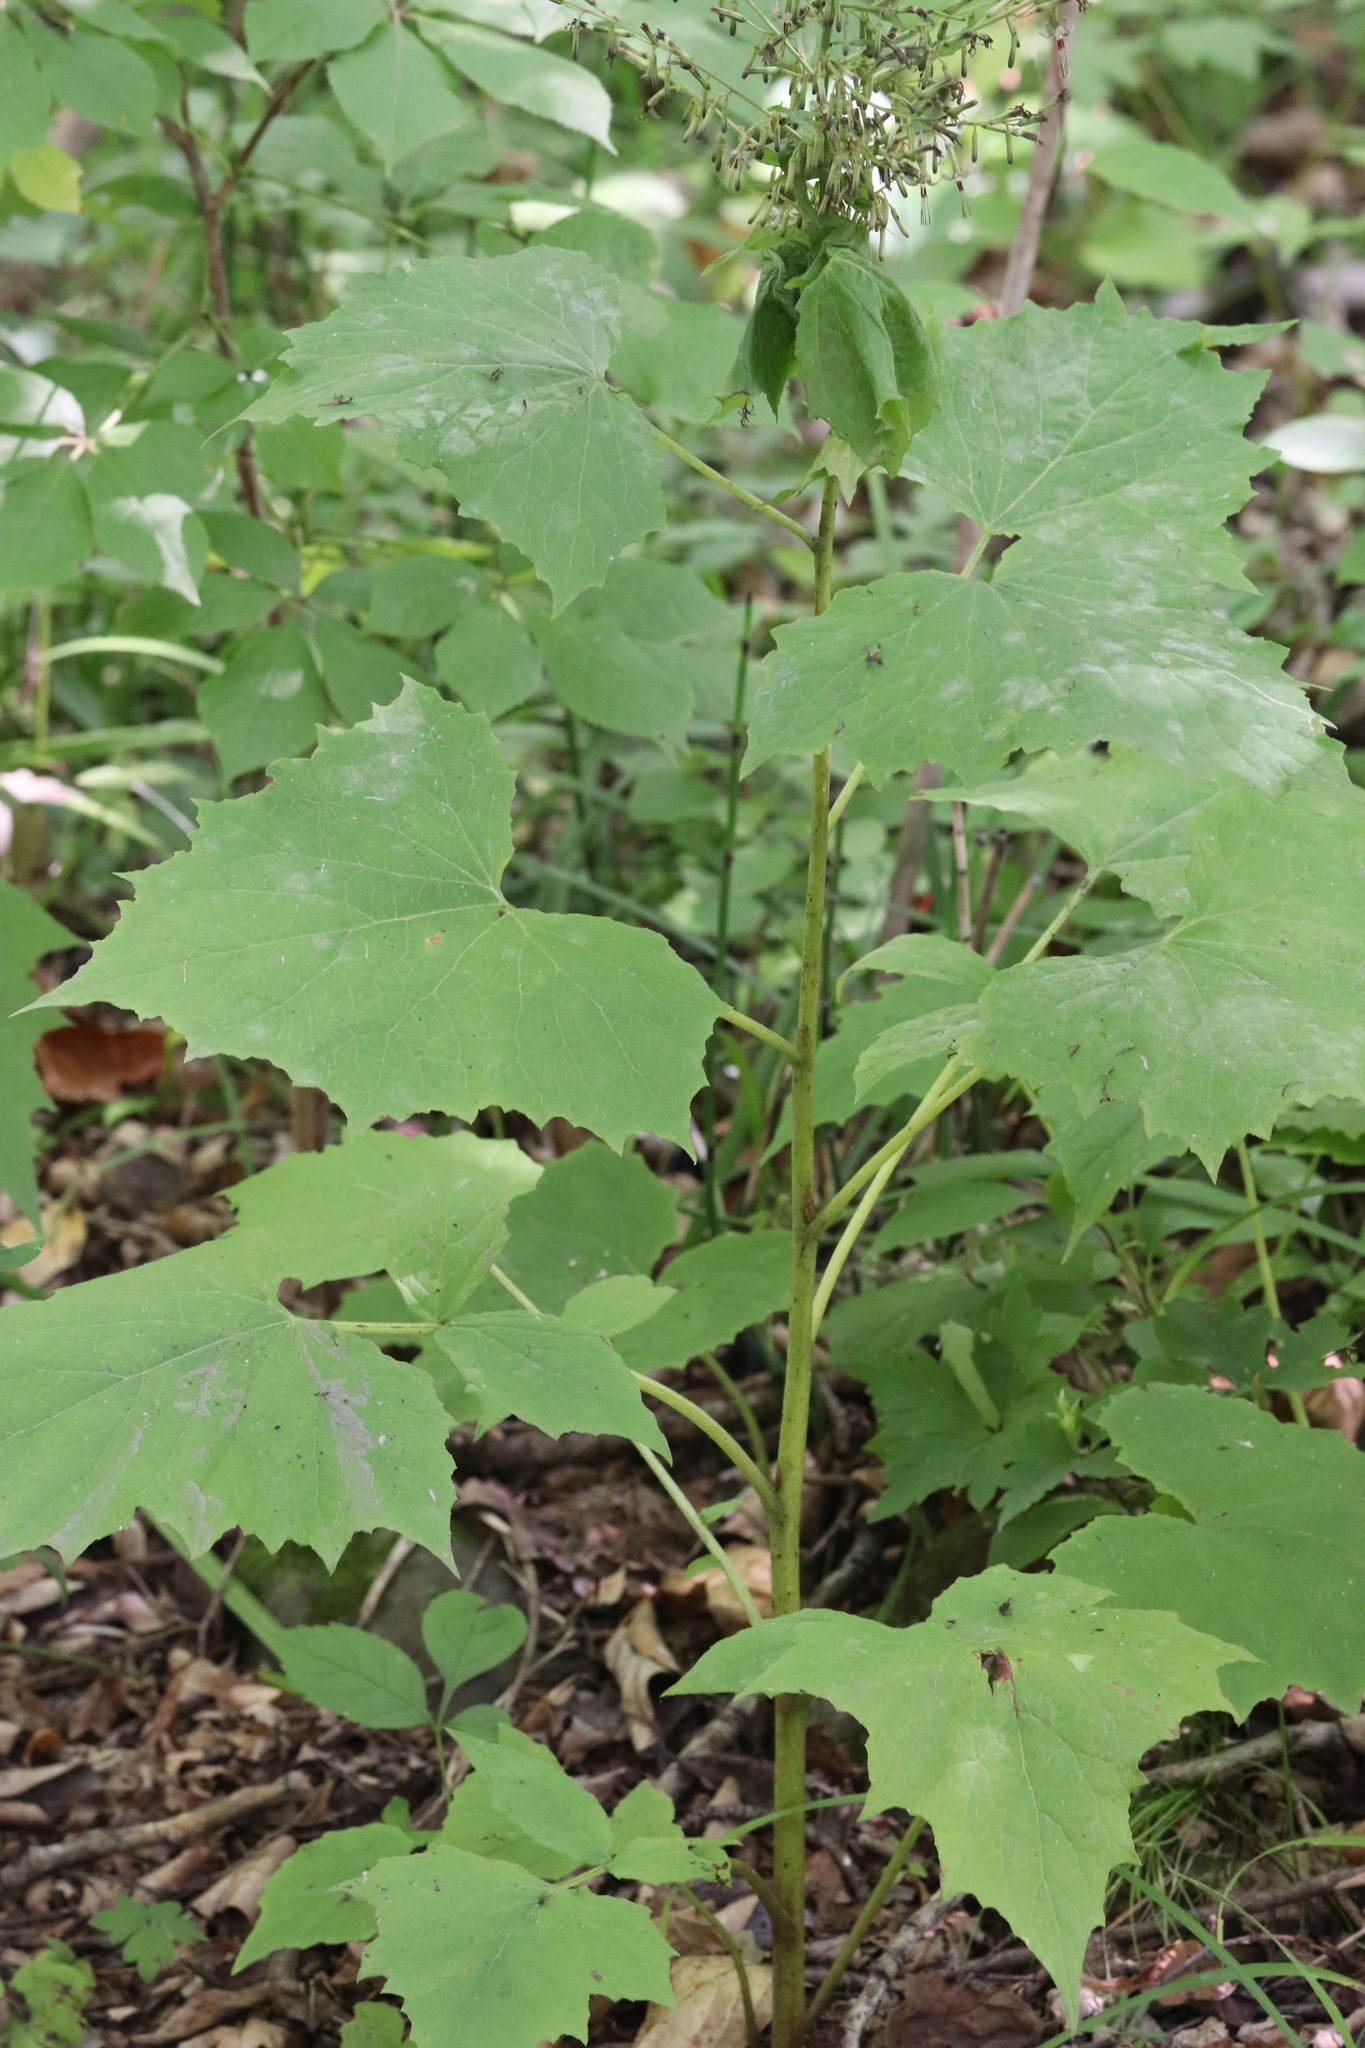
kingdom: Plantae
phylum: Tracheophyta
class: Magnoliopsida
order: Asterales
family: Asteraceae
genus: Nabalus
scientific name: Nabalus tatarinowii
